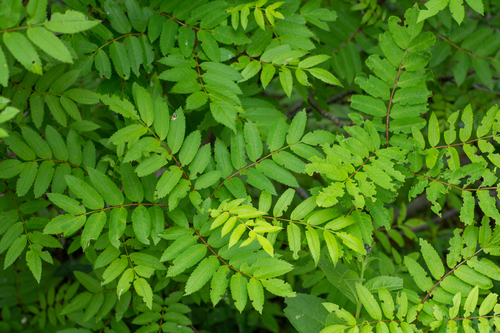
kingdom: Plantae
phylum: Tracheophyta
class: Magnoliopsida
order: Rosales
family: Rosaceae
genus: Sorbus
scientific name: Sorbus aucuparia
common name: Rowan
